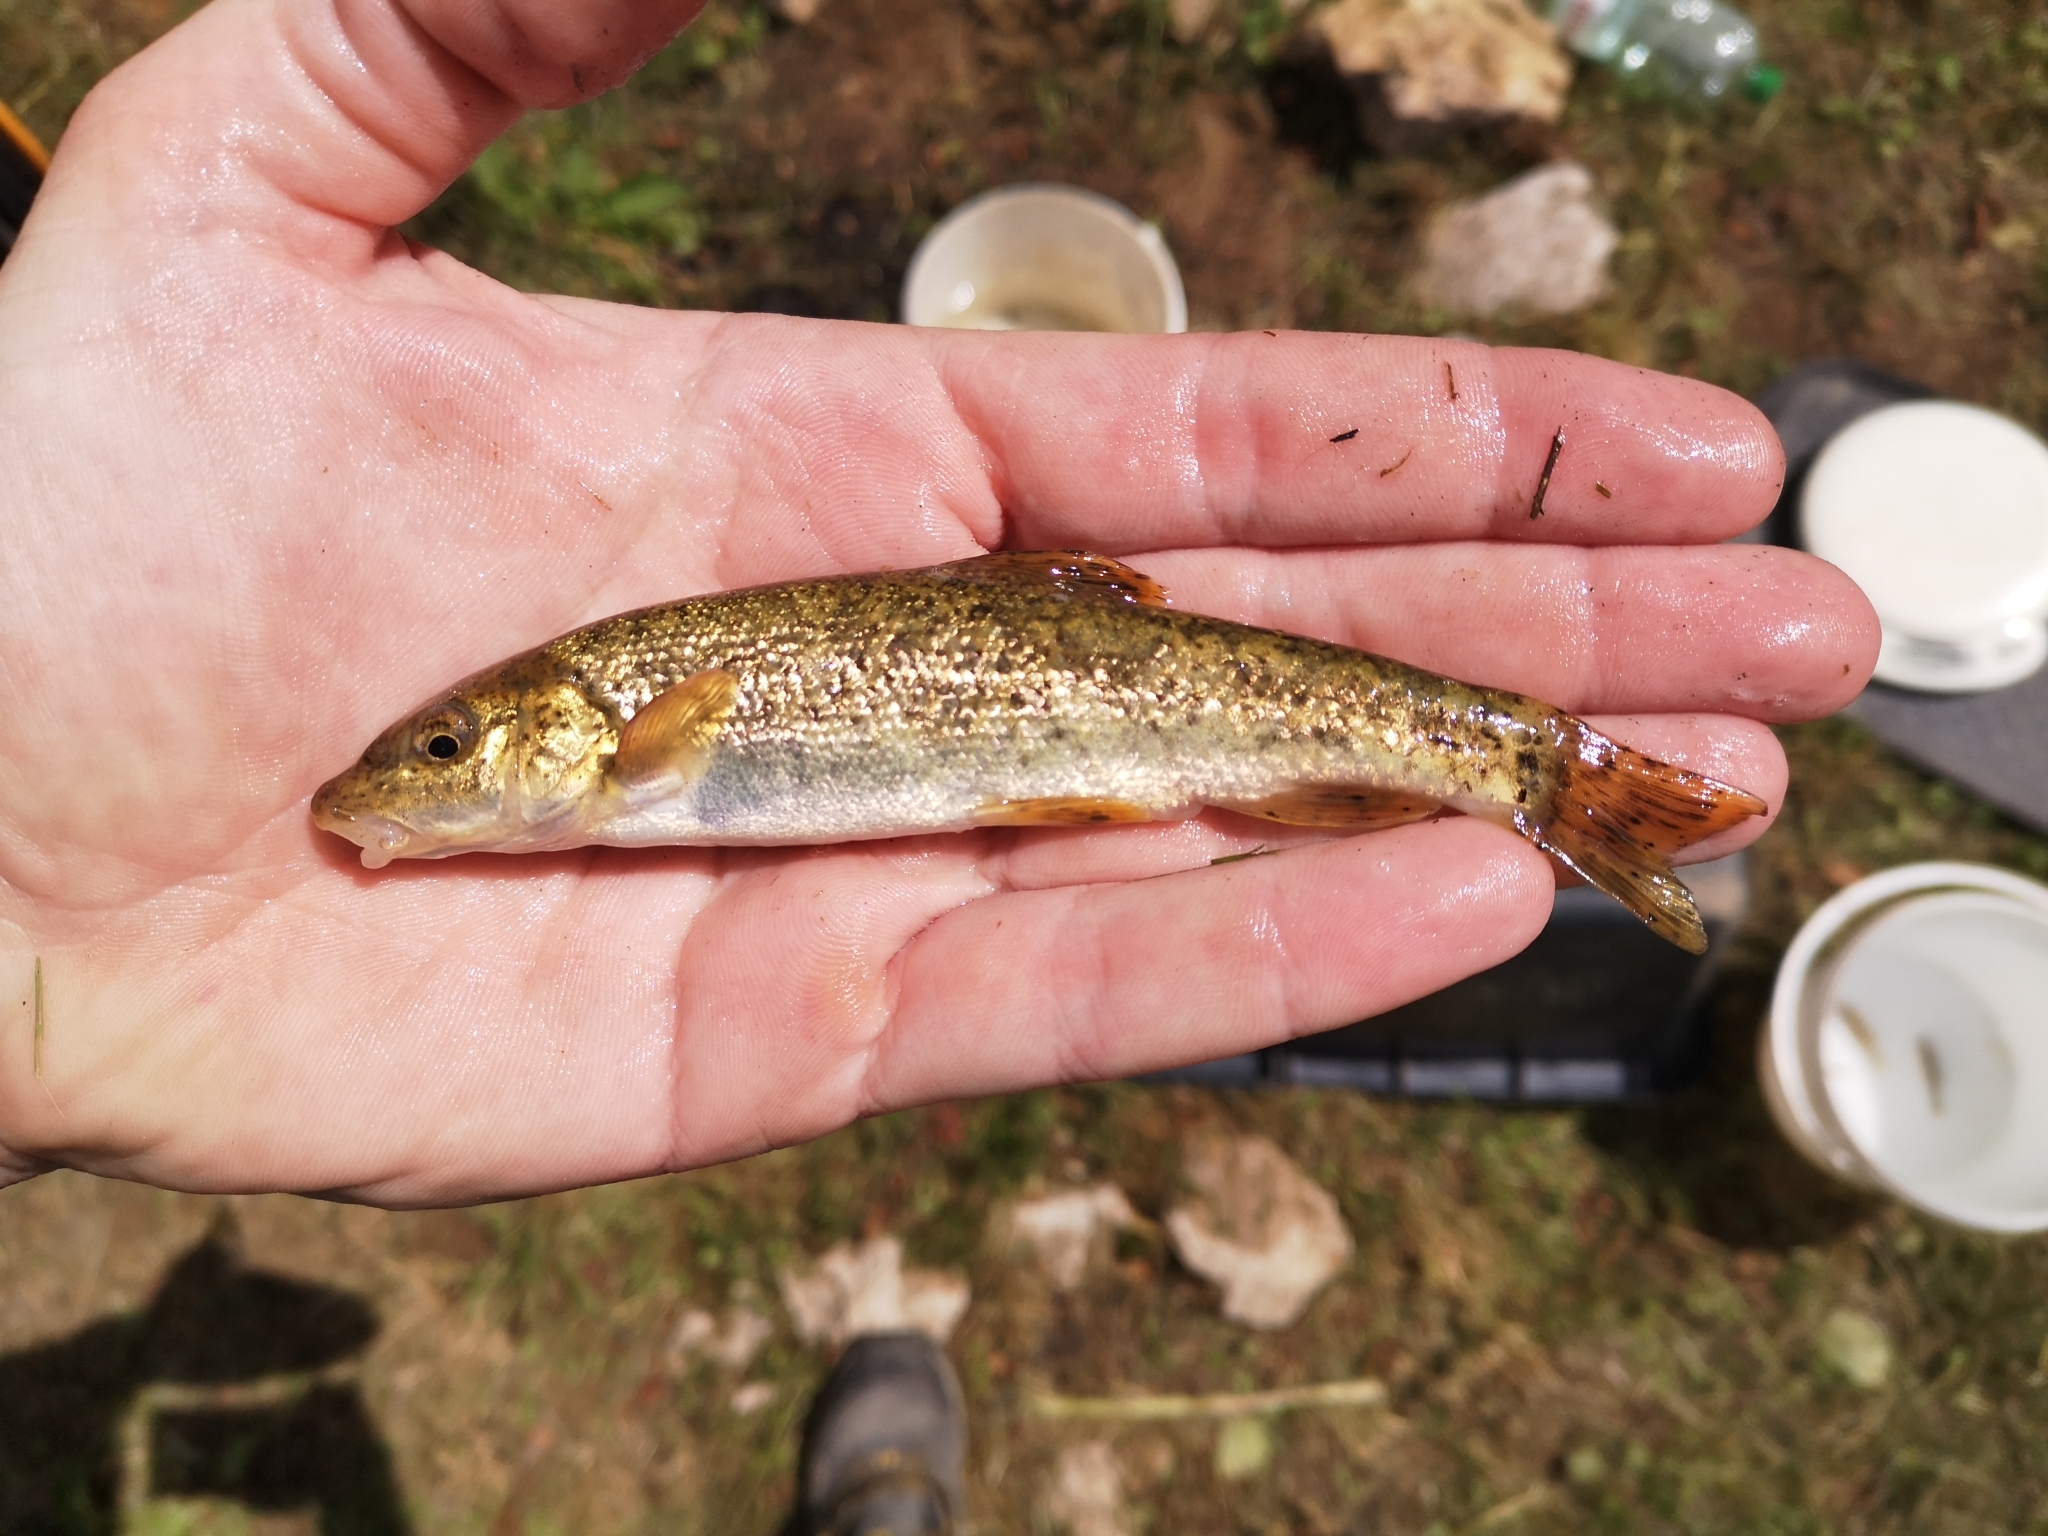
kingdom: Animalia
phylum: Chordata
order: Cypriniformes
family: Cyprinidae
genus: Barbus
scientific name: Barbus balcanicus
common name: Danube barbel
